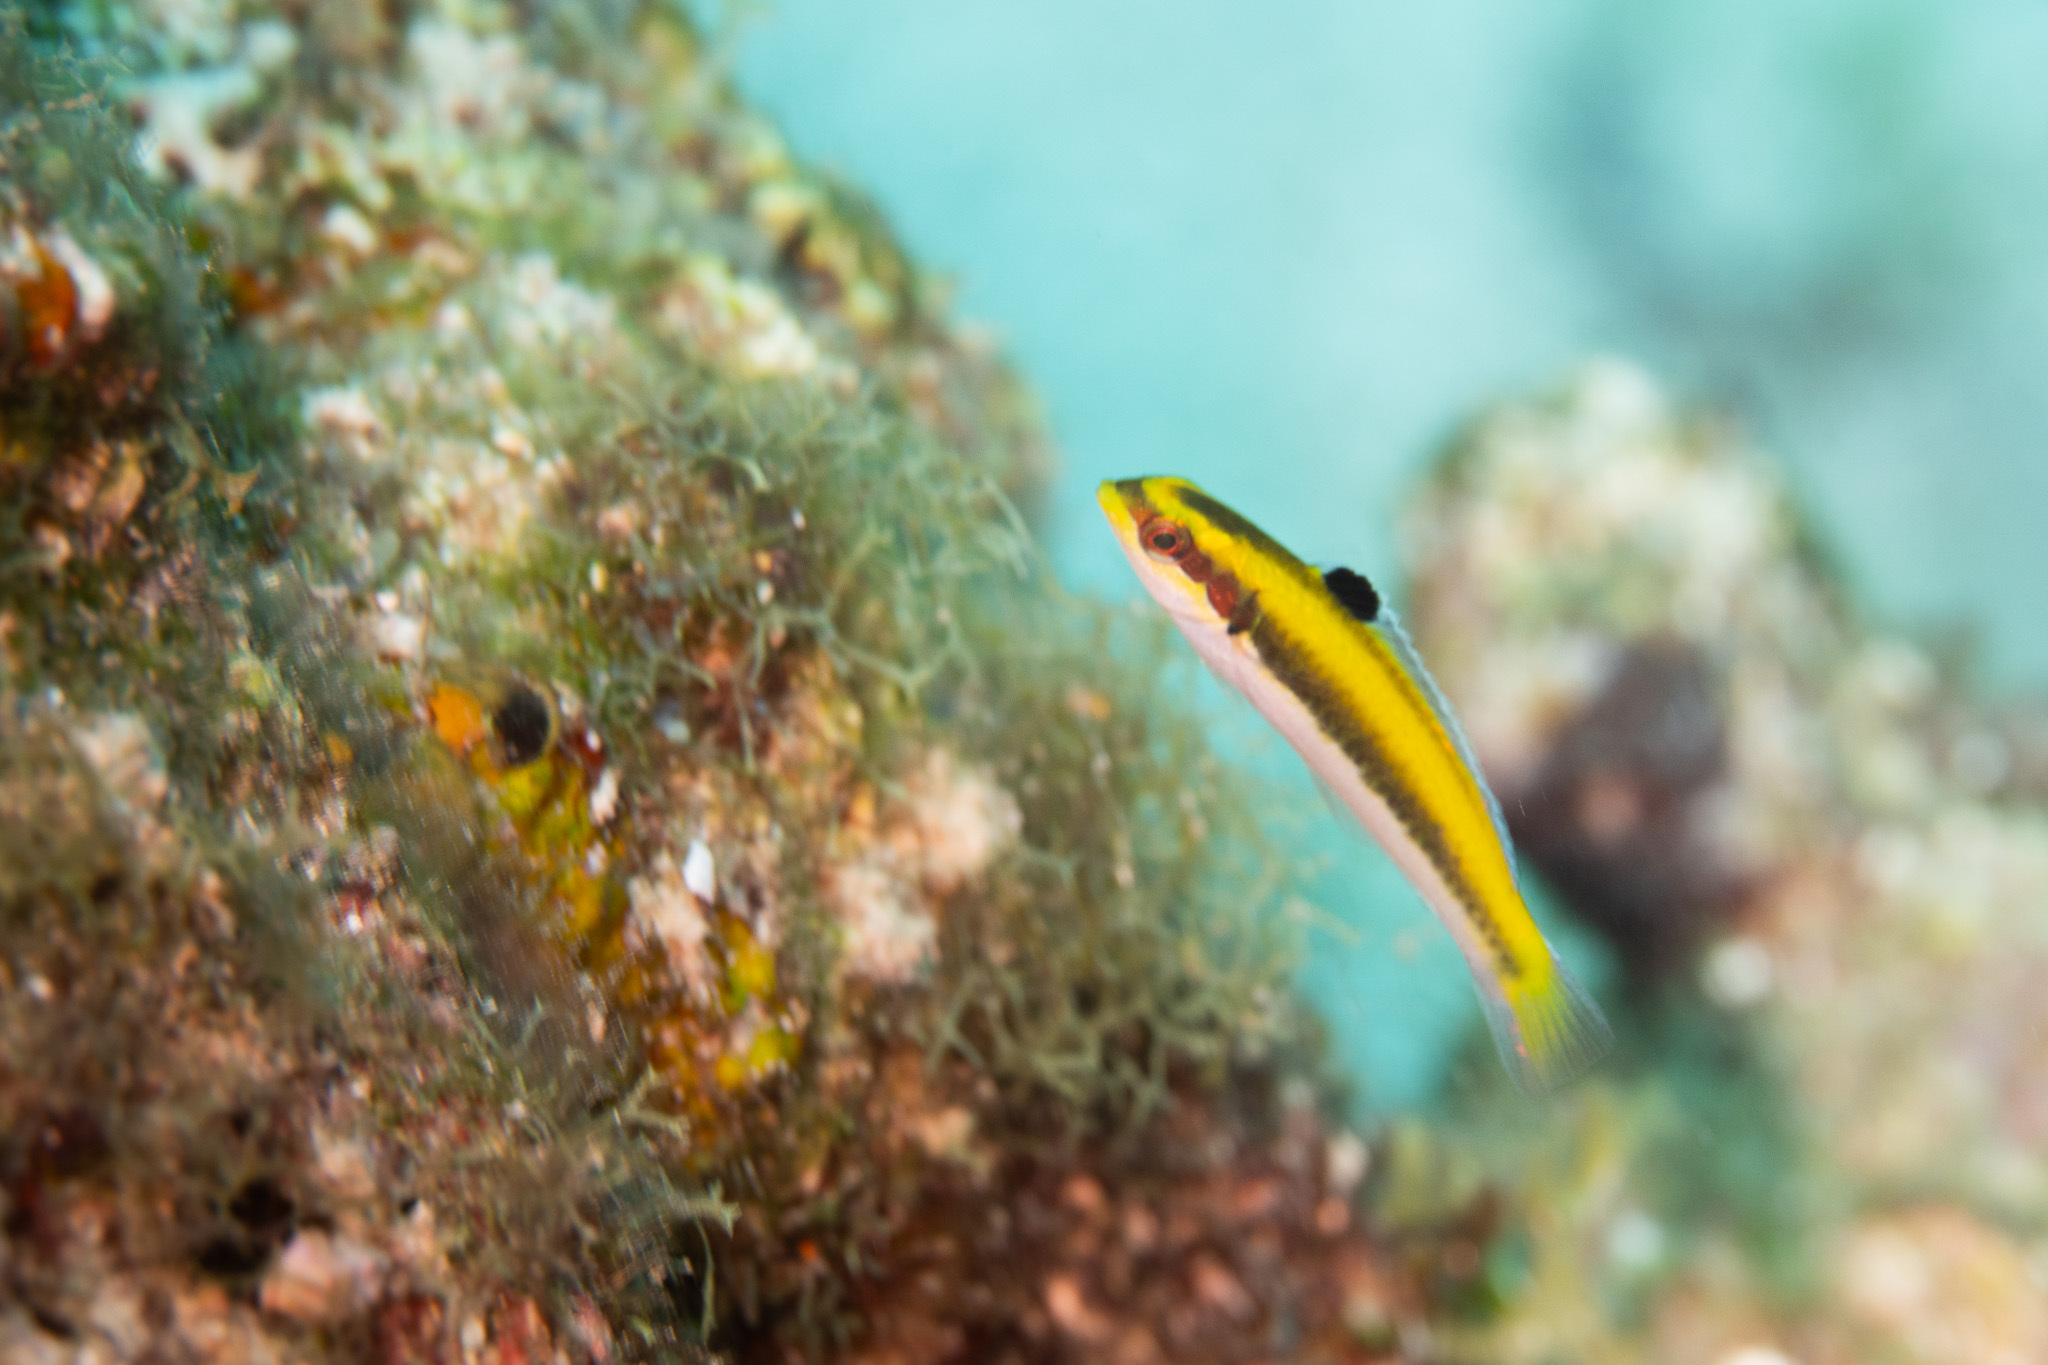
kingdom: Animalia
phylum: Chordata
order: Perciformes
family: Labridae
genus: Thalassoma
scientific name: Thalassoma bifasciatum
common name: Bluehead wrasse
